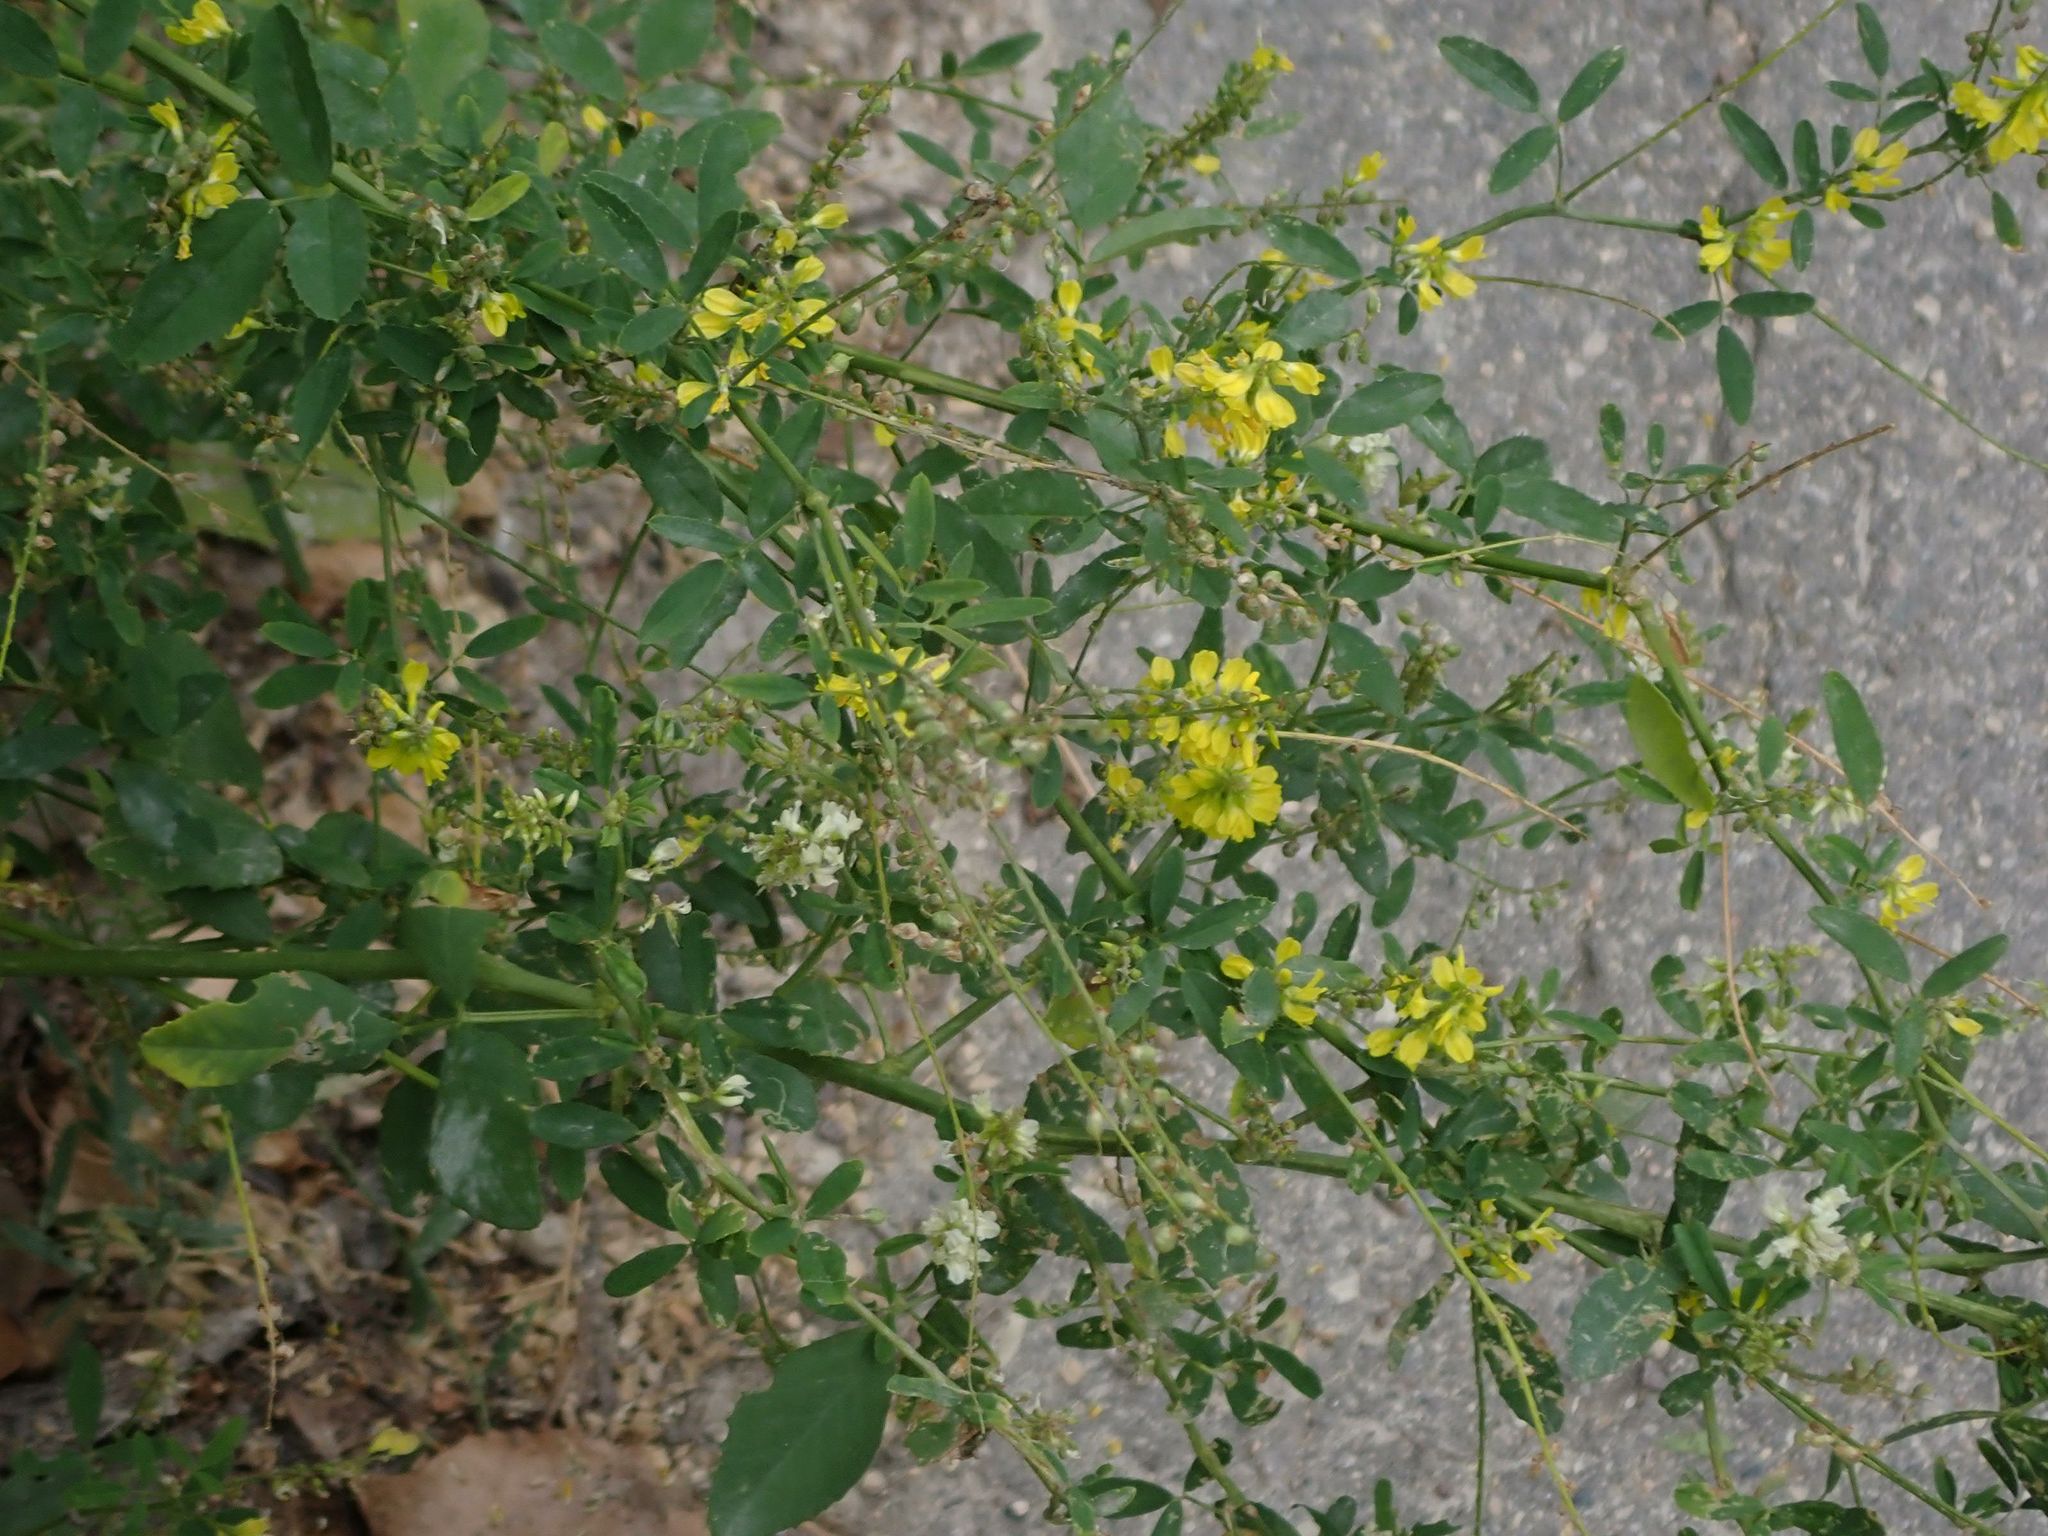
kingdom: Plantae
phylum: Tracheophyta
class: Magnoliopsida
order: Fabales
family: Fabaceae
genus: Melilotus
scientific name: Melilotus officinalis
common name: Sweetclover
